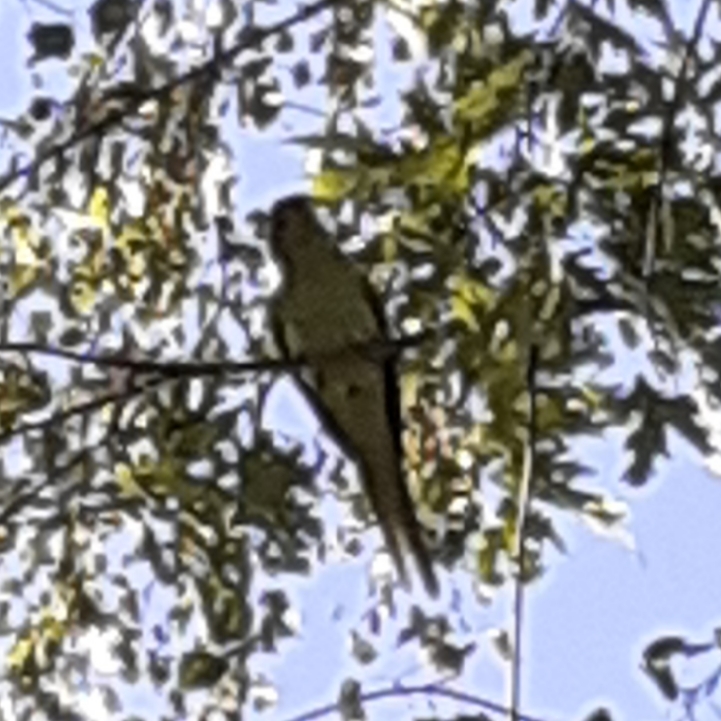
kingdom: Animalia
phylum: Chordata
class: Aves
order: Psittaciformes
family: Psittacidae
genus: Psittacula
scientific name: Psittacula krameri
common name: Rose-ringed parakeet
